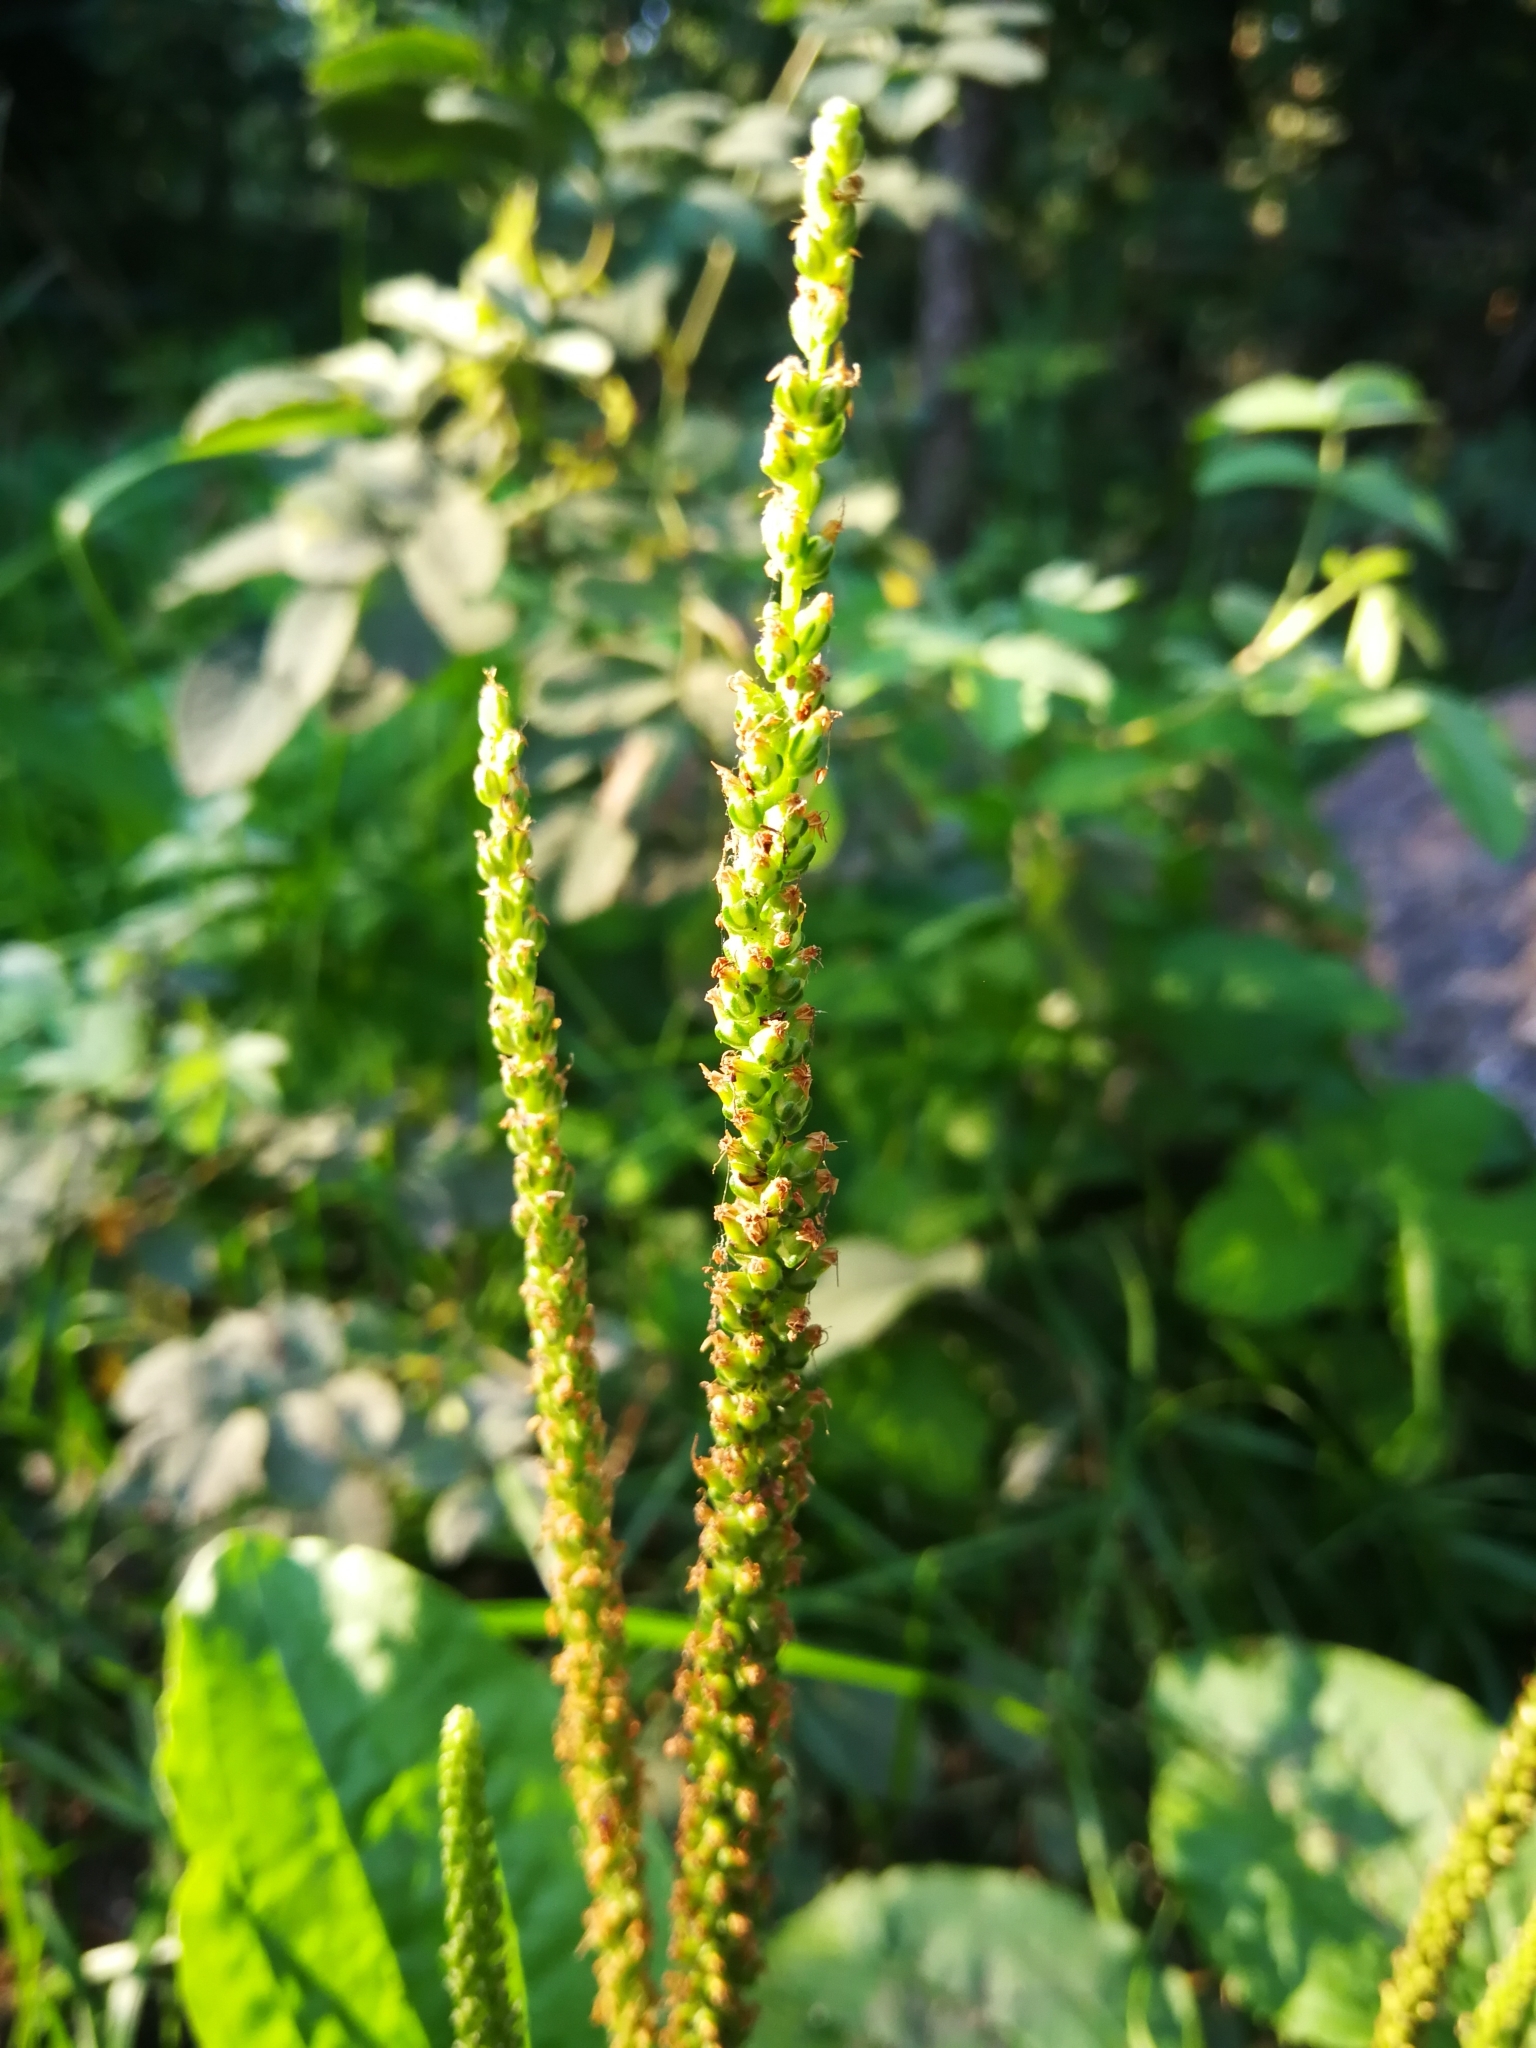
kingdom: Plantae
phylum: Tracheophyta
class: Magnoliopsida
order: Lamiales
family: Plantaginaceae
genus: Plantago
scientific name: Plantago major
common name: Common plantain
